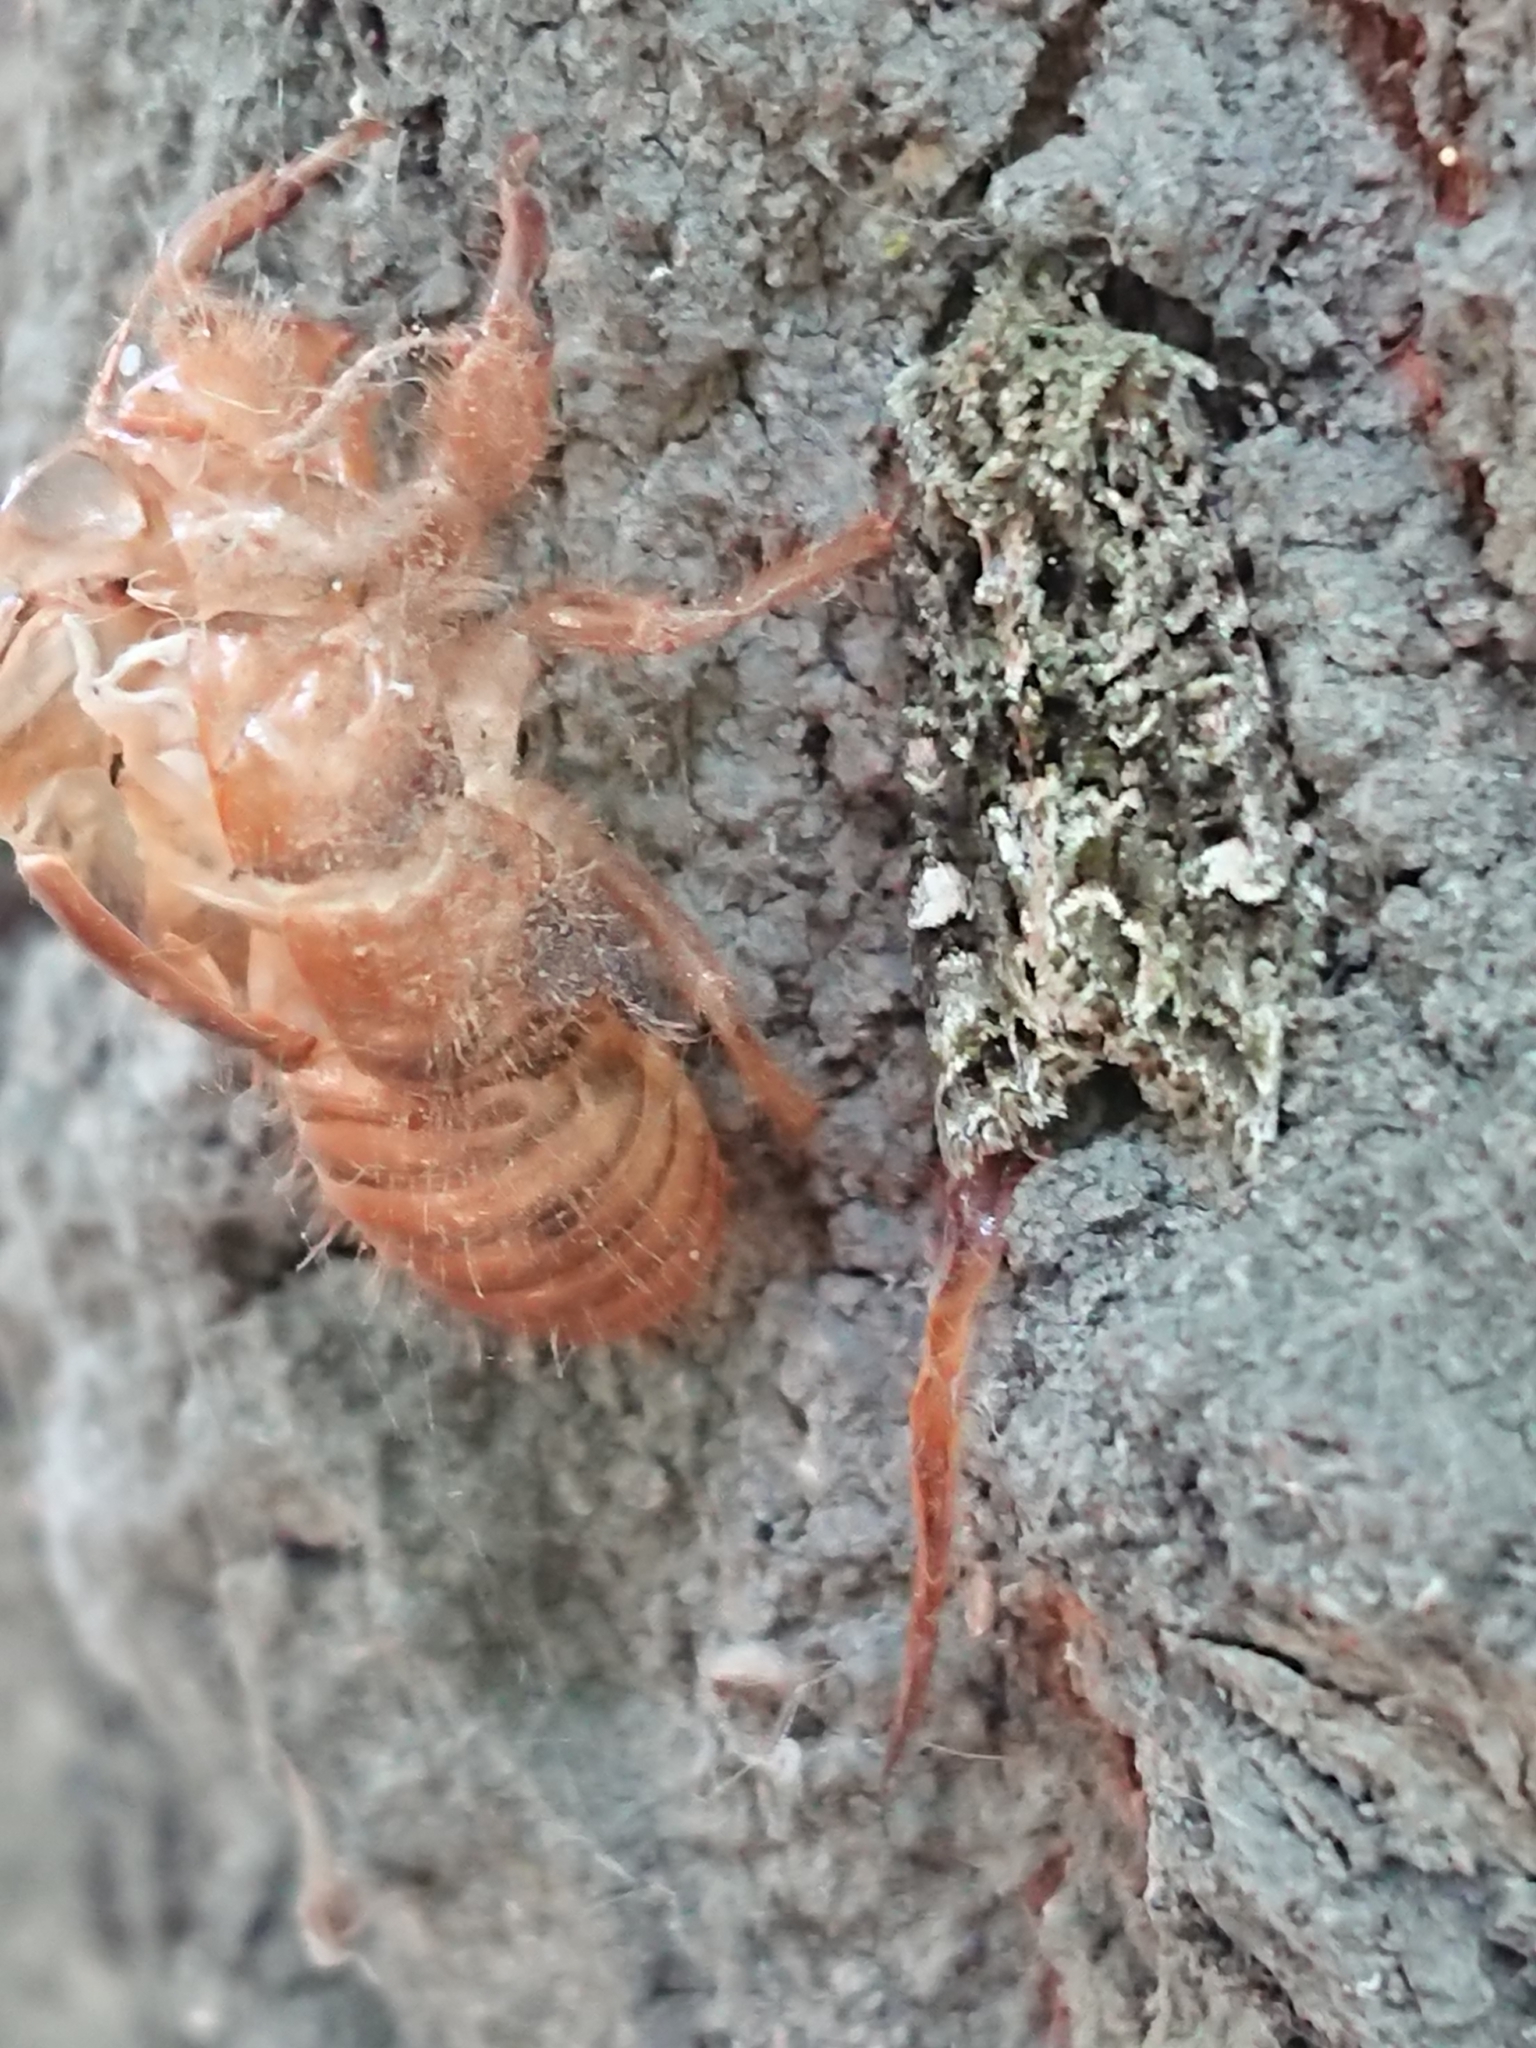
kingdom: Animalia
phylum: Arthropoda
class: Insecta
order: Lepidoptera
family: Noctuidae
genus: Ichneutica
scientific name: Ichneutica
